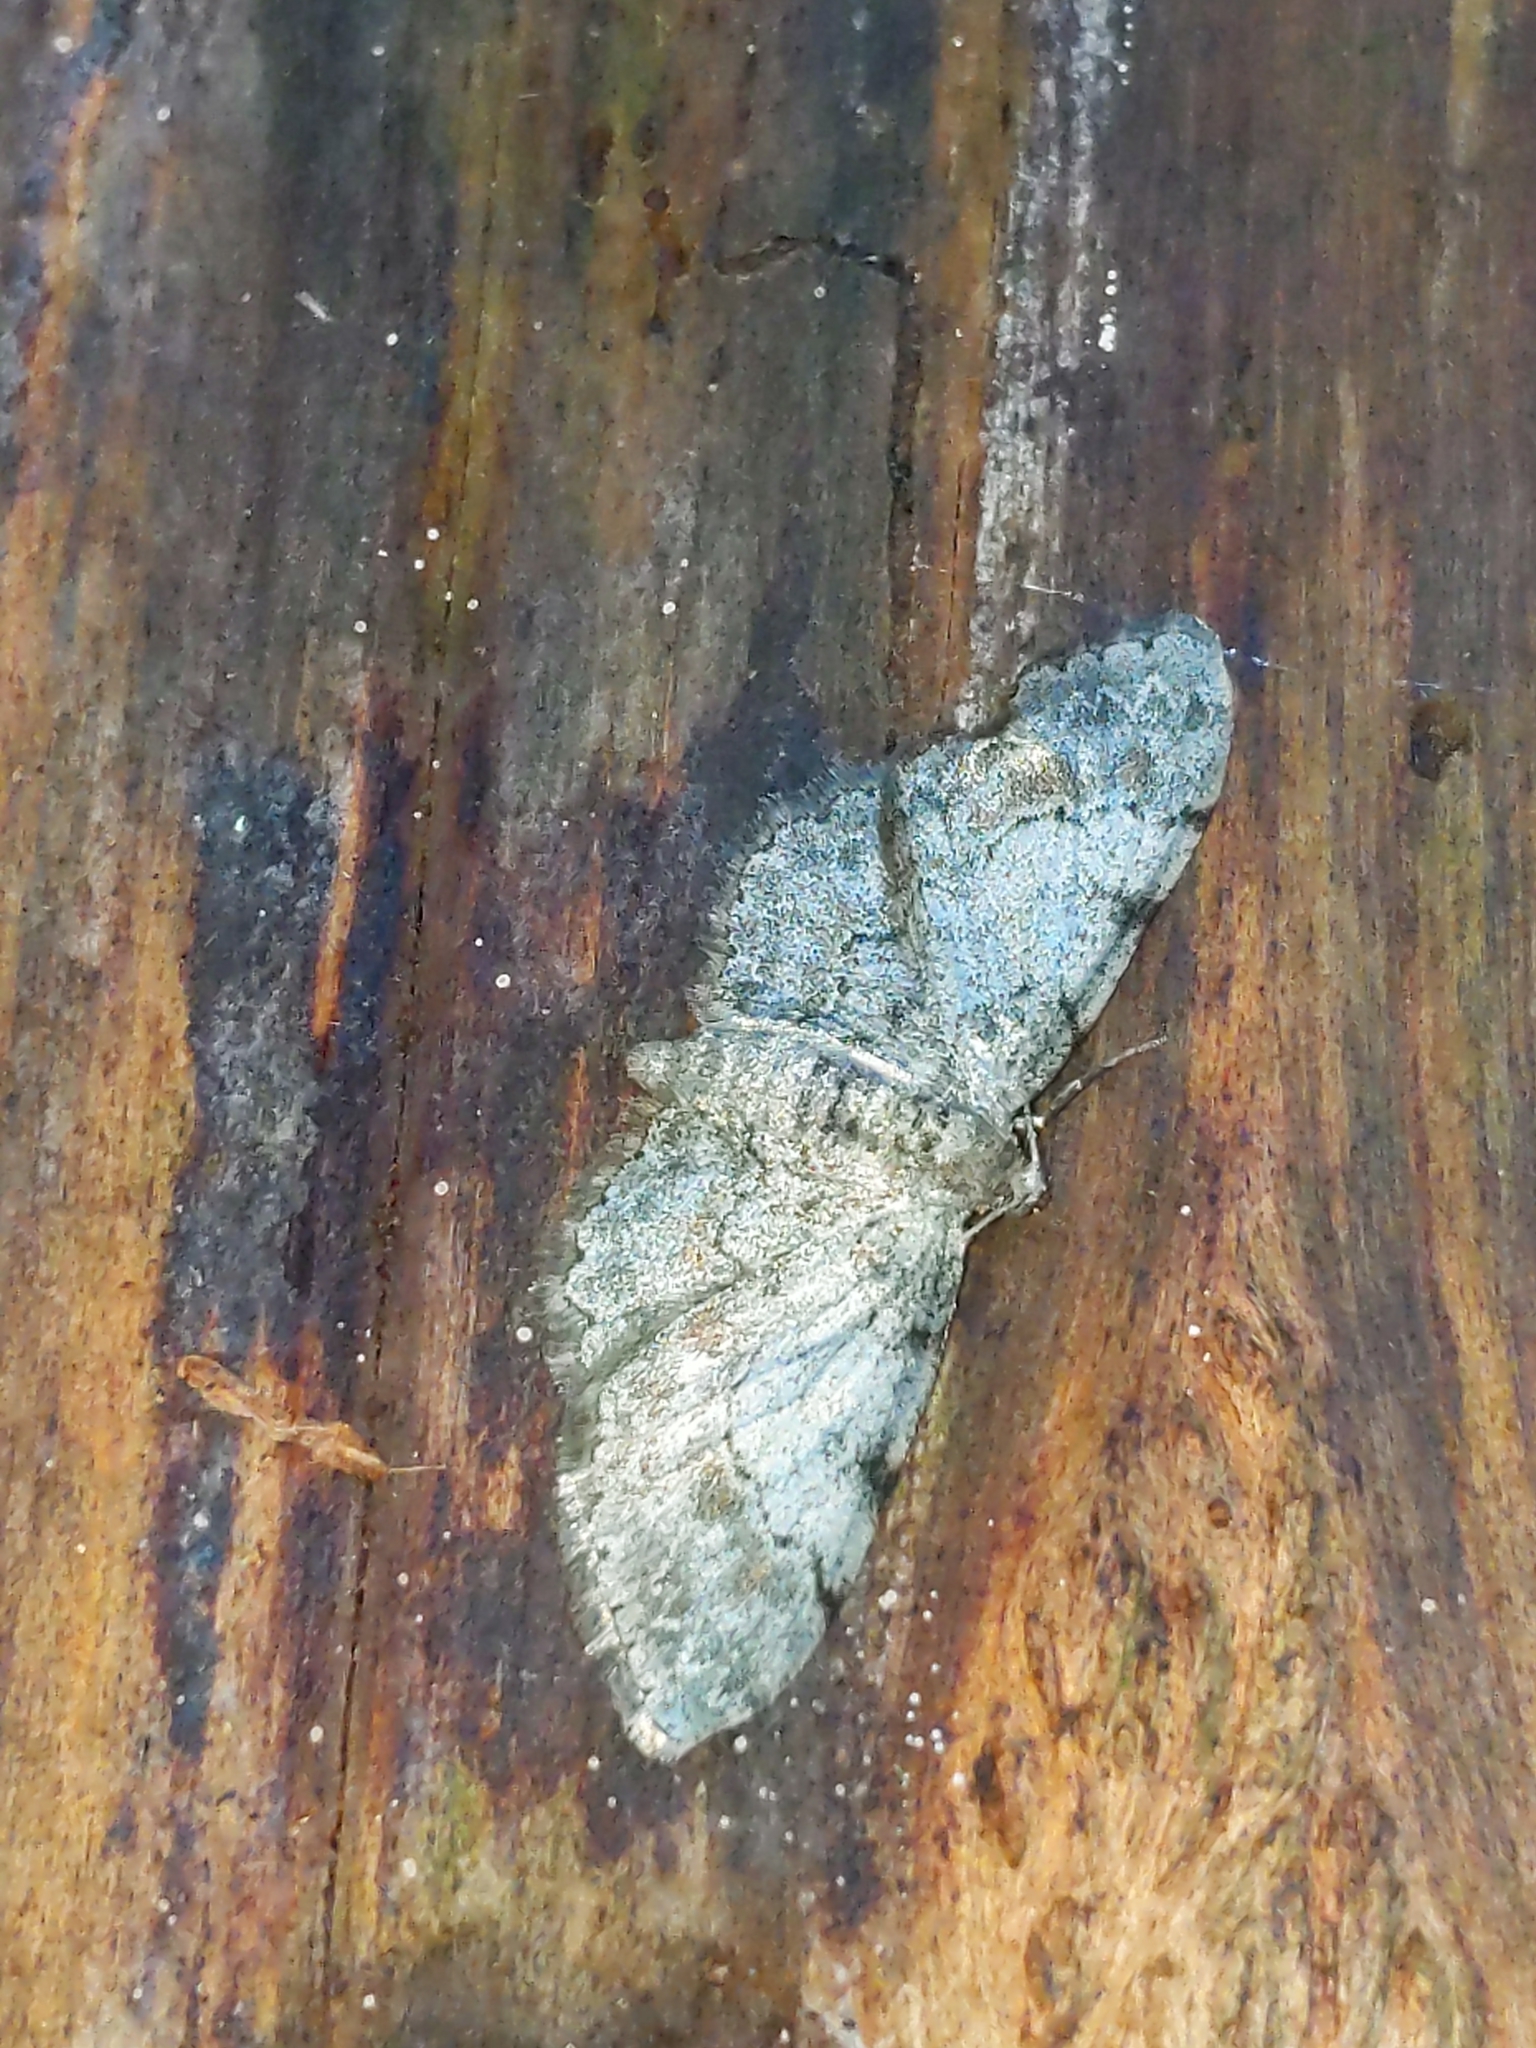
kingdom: Animalia
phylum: Arthropoda
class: Insecta
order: Lepidoptera
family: Geometridae
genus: Glenoides
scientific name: Glenoides texanaria
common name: Texas gray
